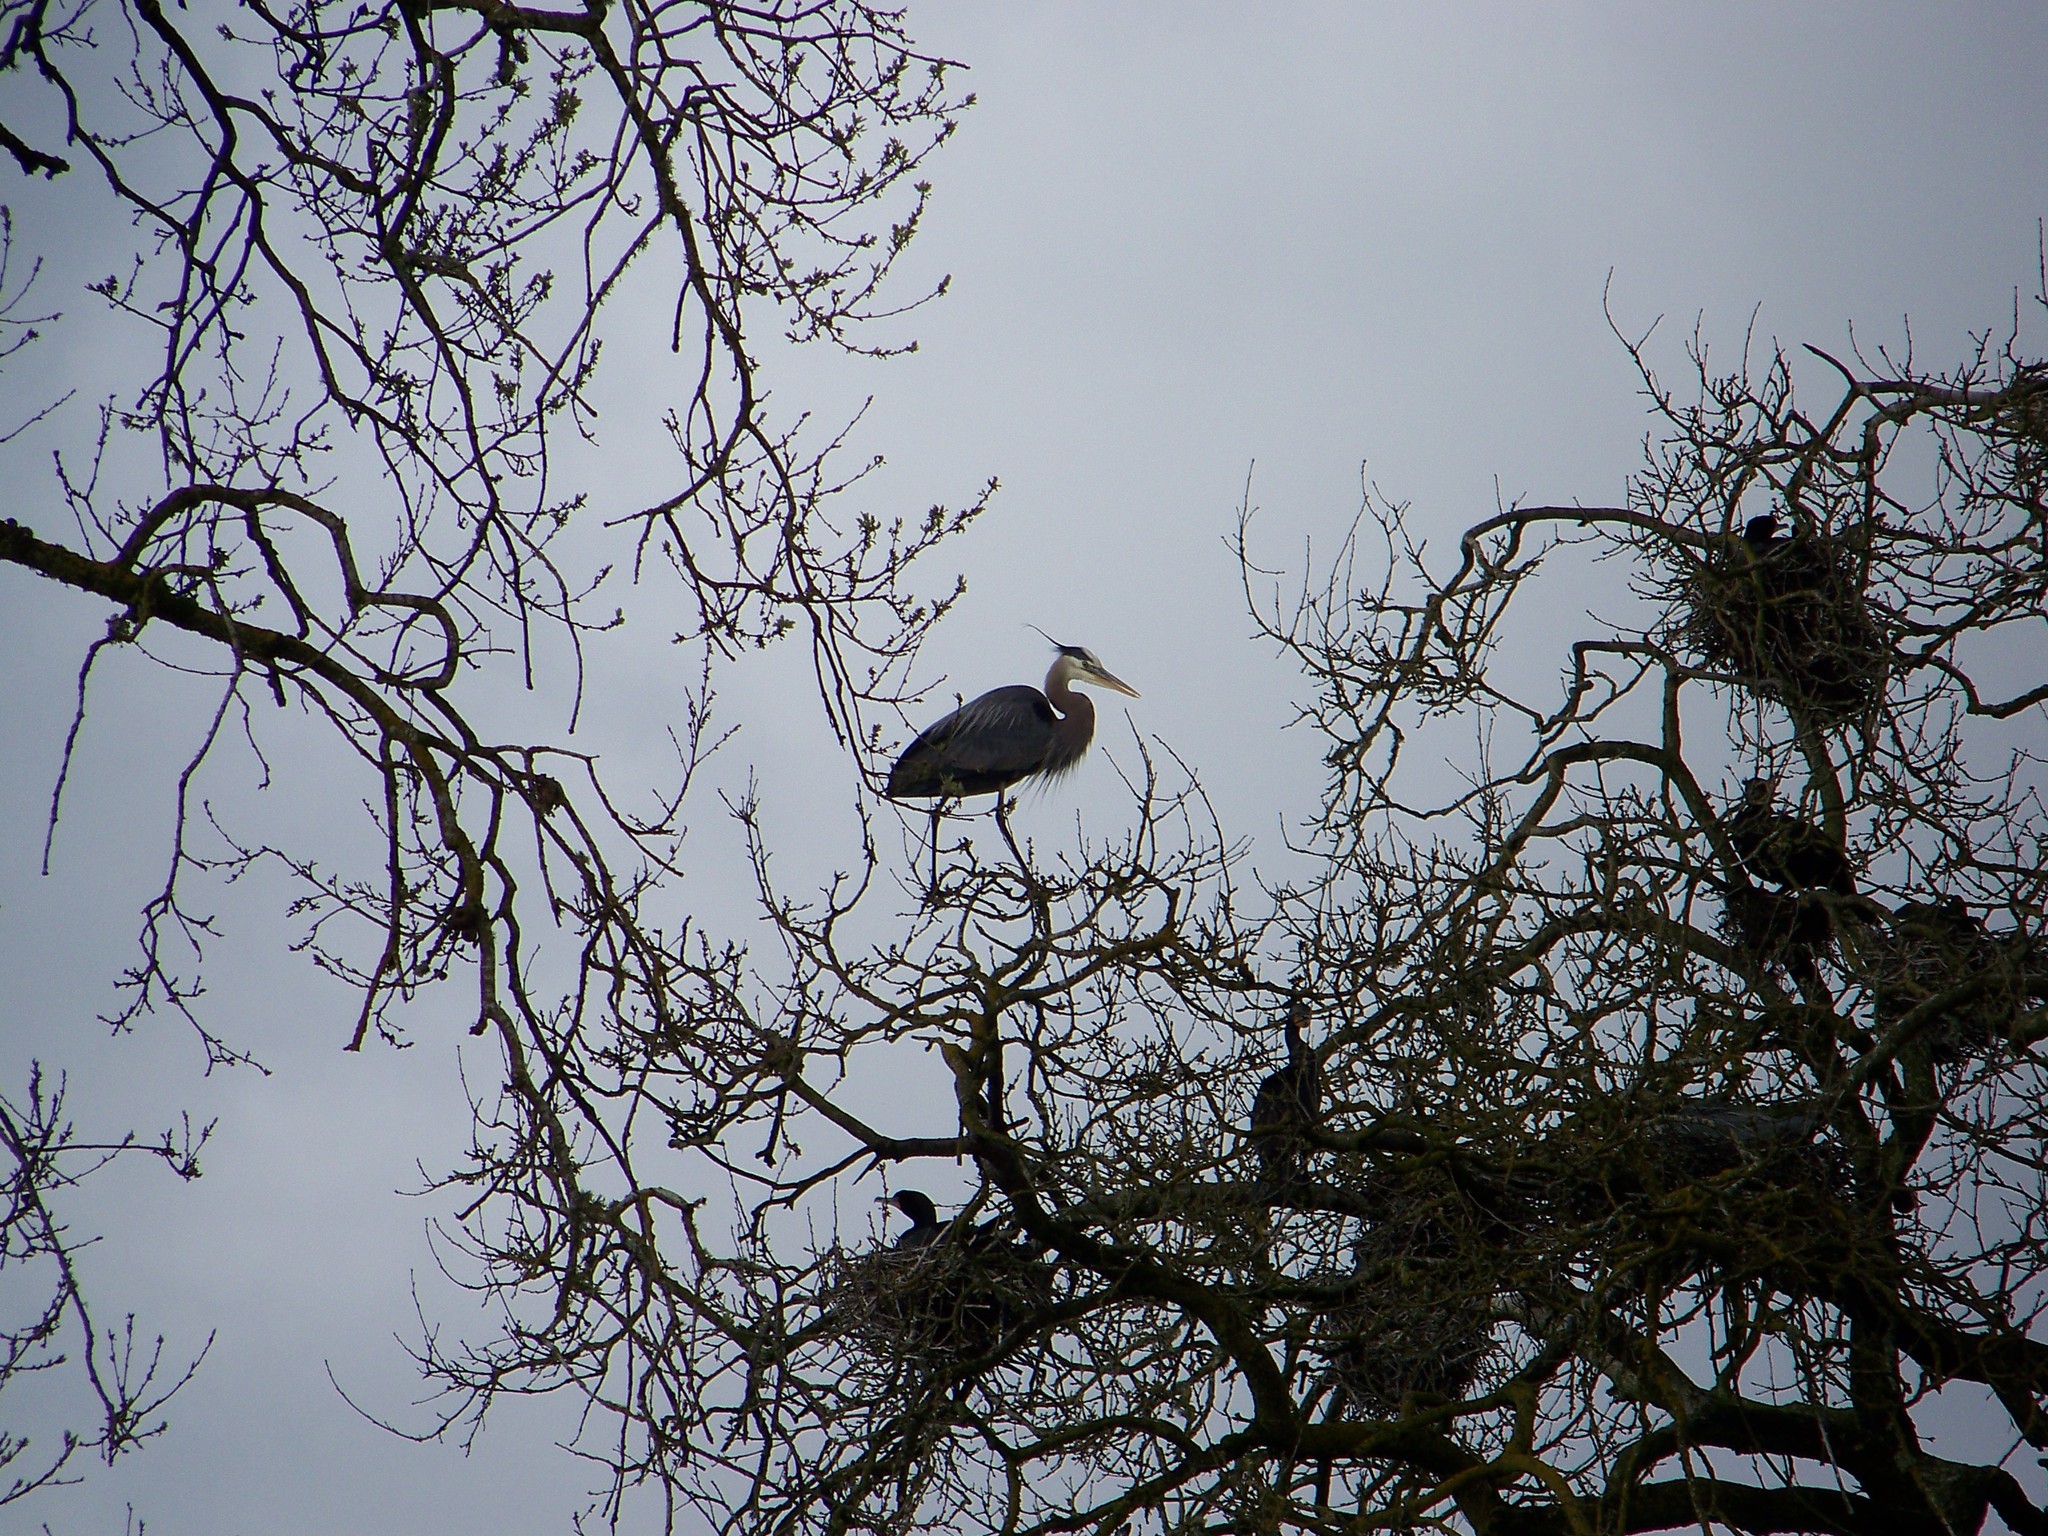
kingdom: Animalia
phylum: Chordata
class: Aves
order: Pelecaniformes
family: Ardeidae
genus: Ardea
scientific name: Ardea herodias
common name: Great blue heron
